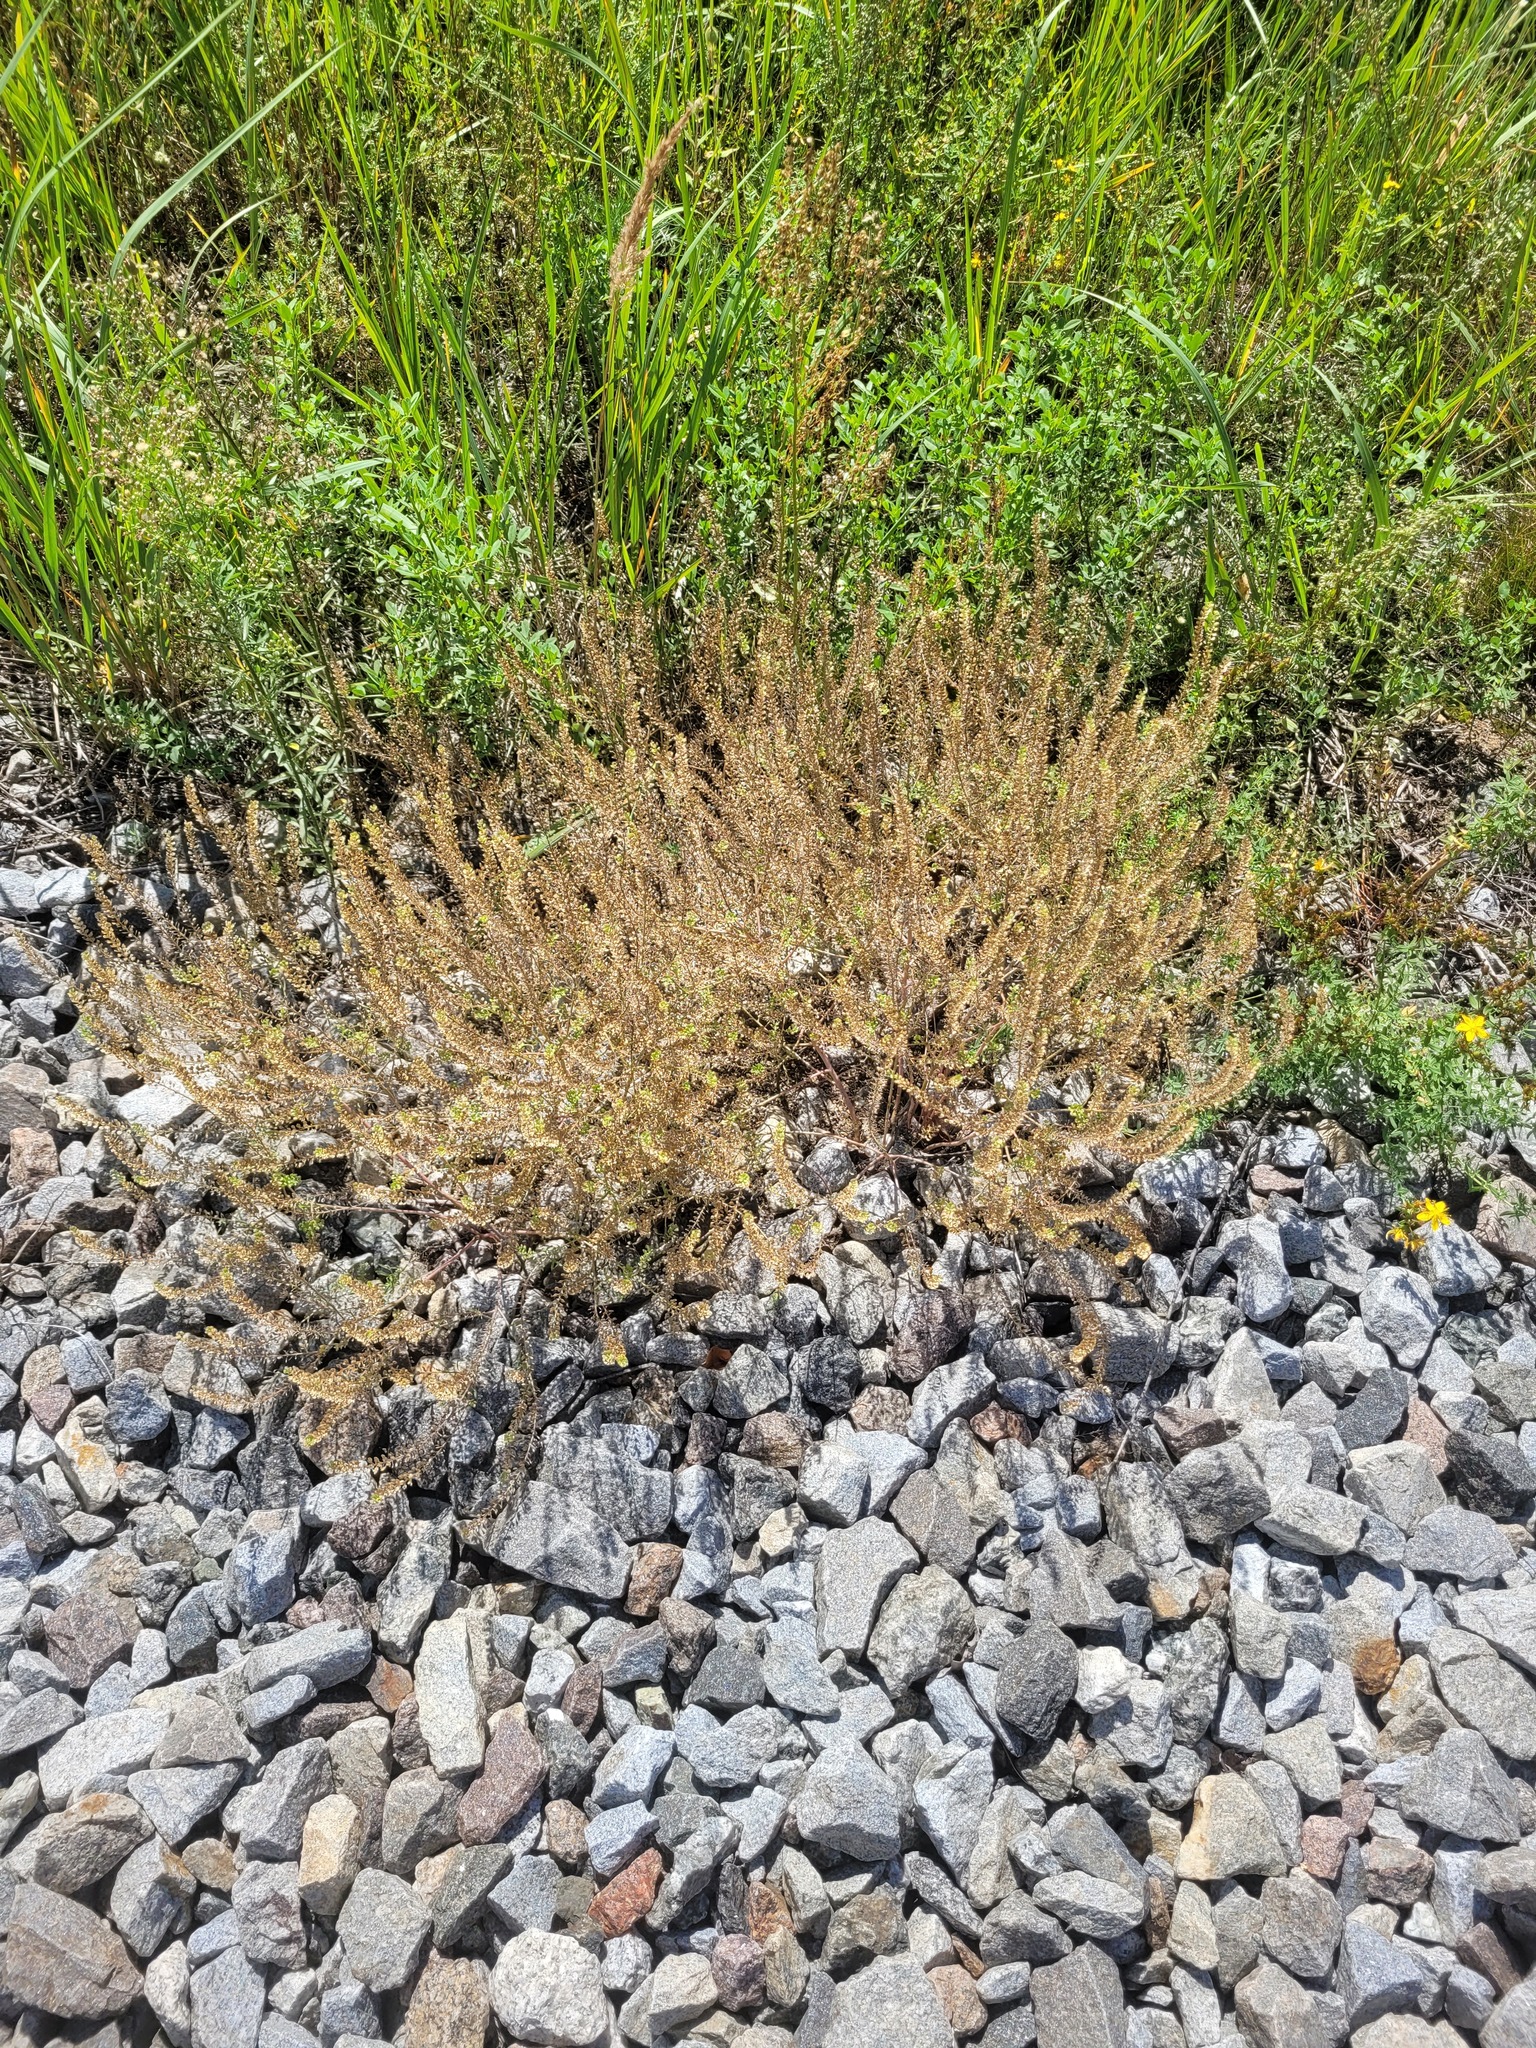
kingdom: Plantae
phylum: Tracheophyta
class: Magnoliopsida
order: Brassicales
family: Brassicaceae
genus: Lepidium
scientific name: Lepidium densiflorum
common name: Miner's pepperwort
